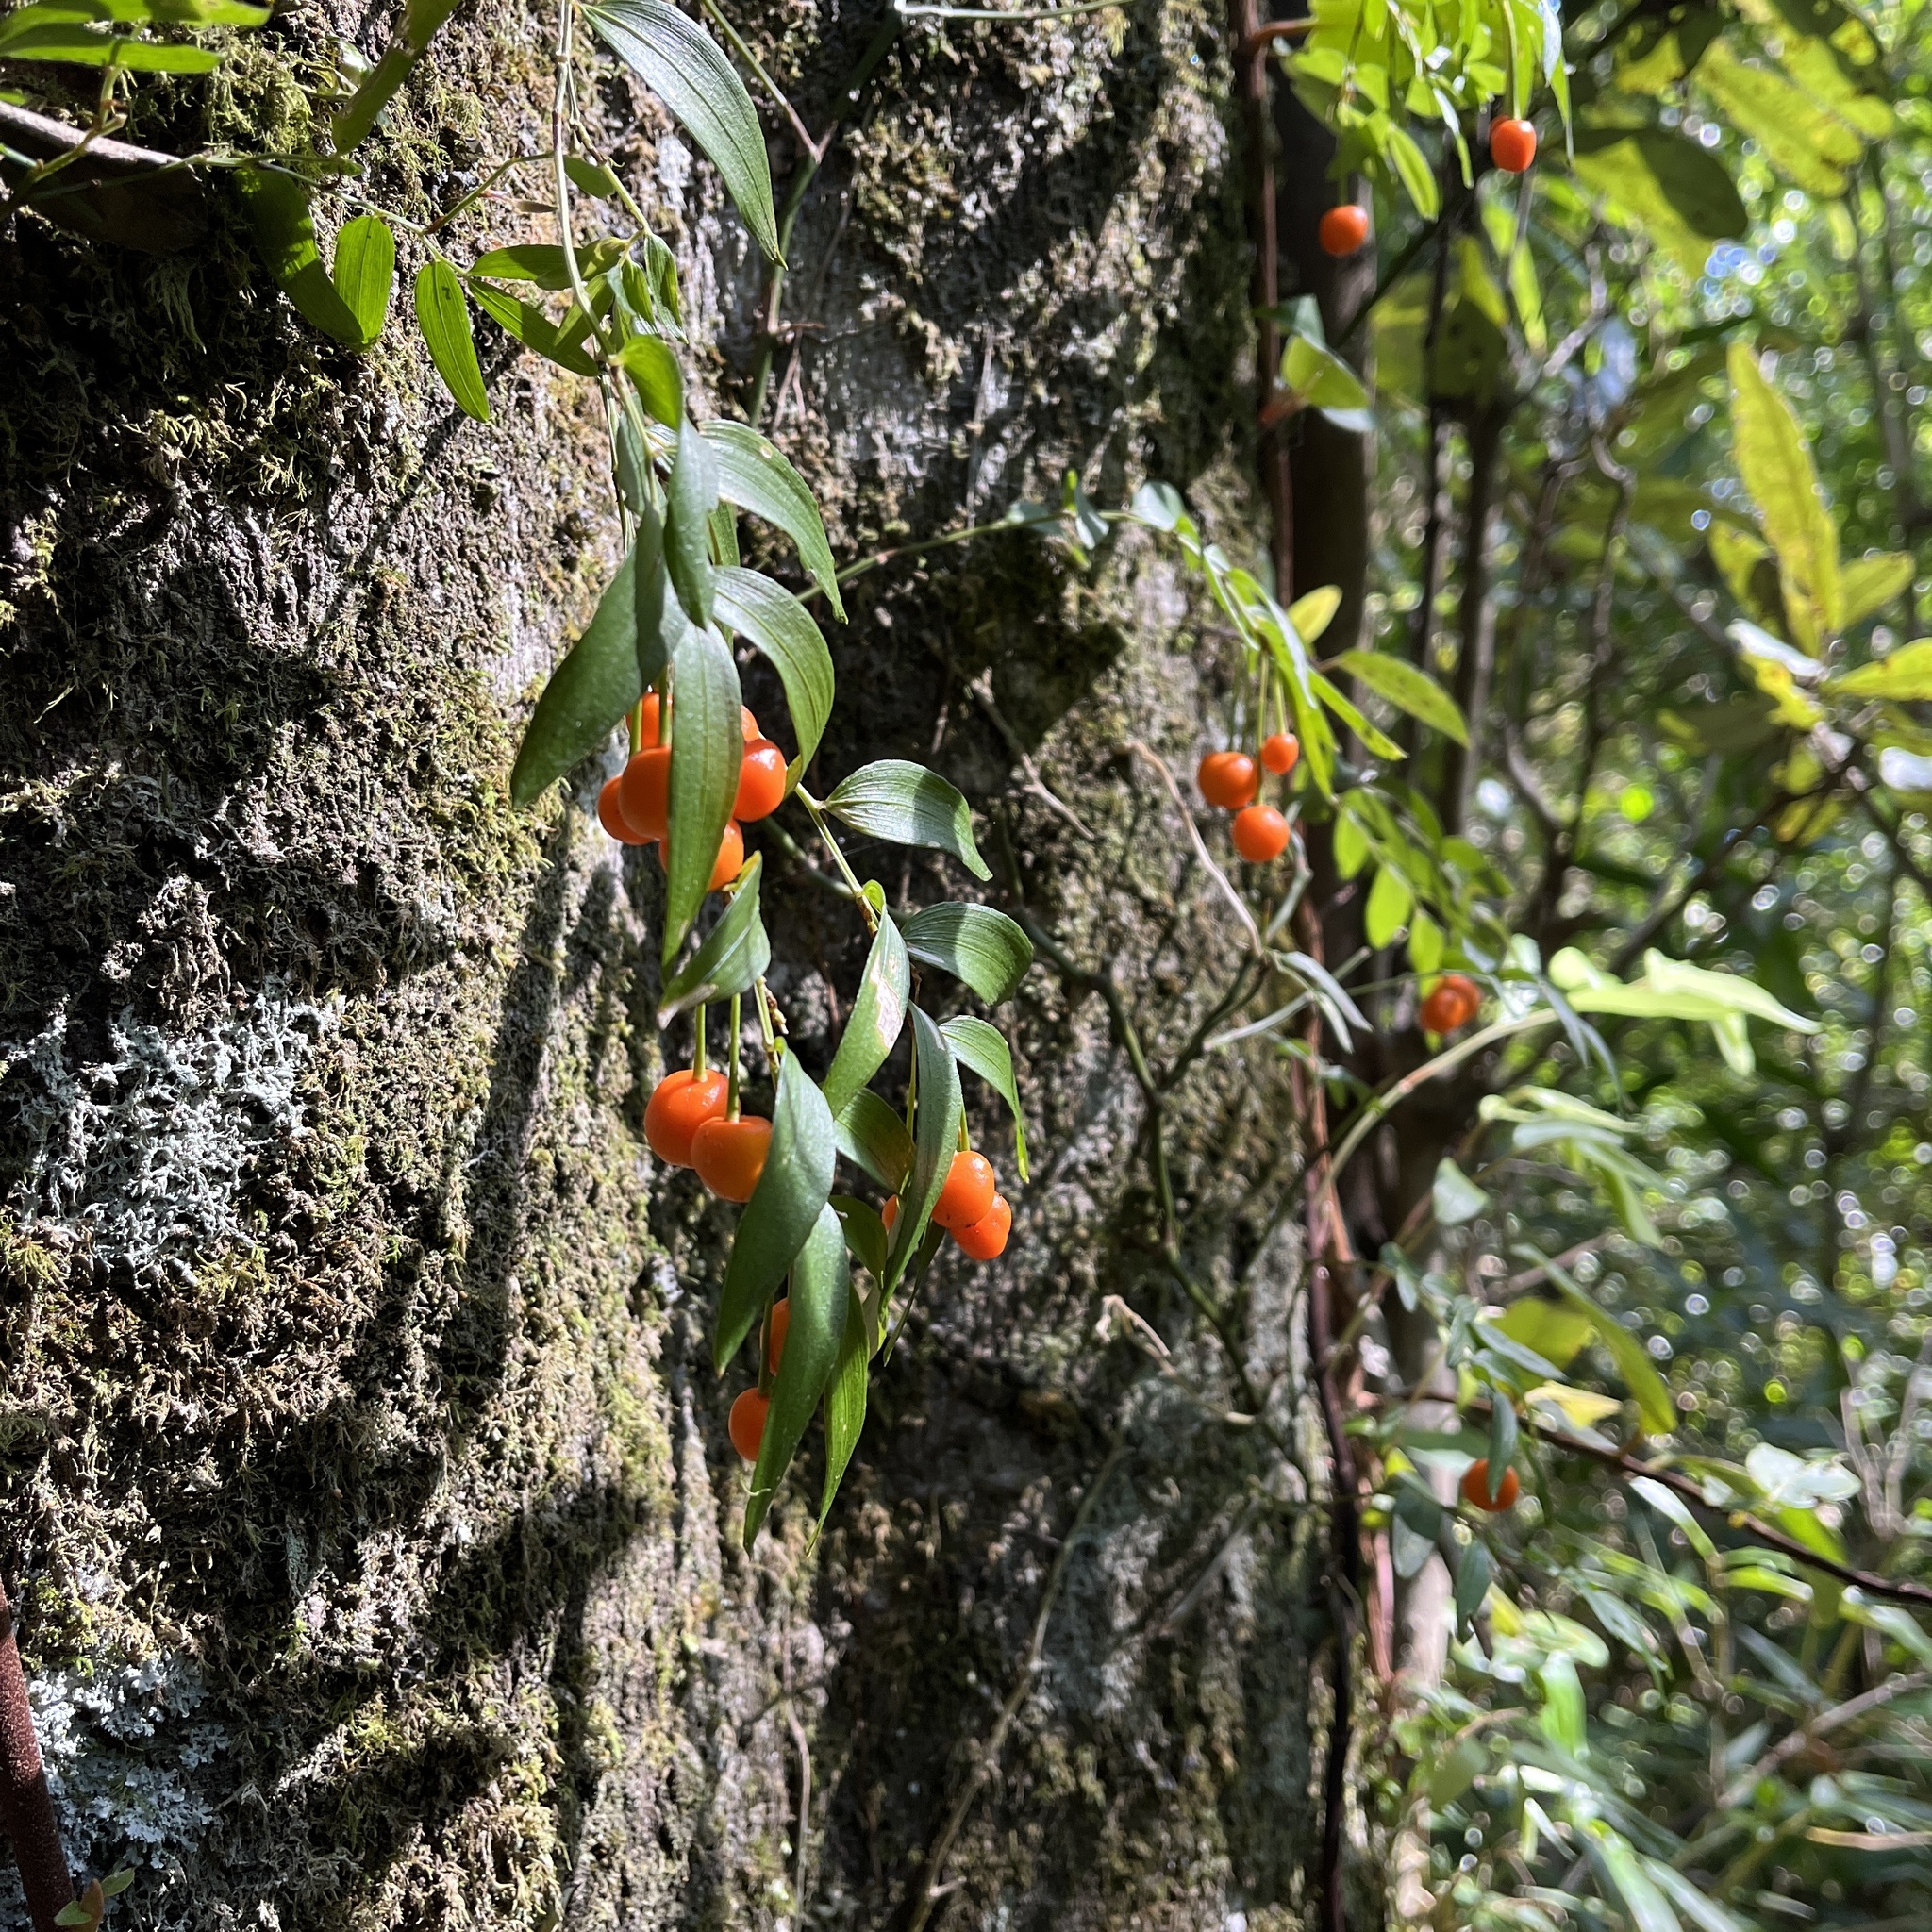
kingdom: Plantae
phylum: Tracheophyta
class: Liliopsida
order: Liliales
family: Alstroemeriaceae
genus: Luzuriaga
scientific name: Luzuriaga radicans
